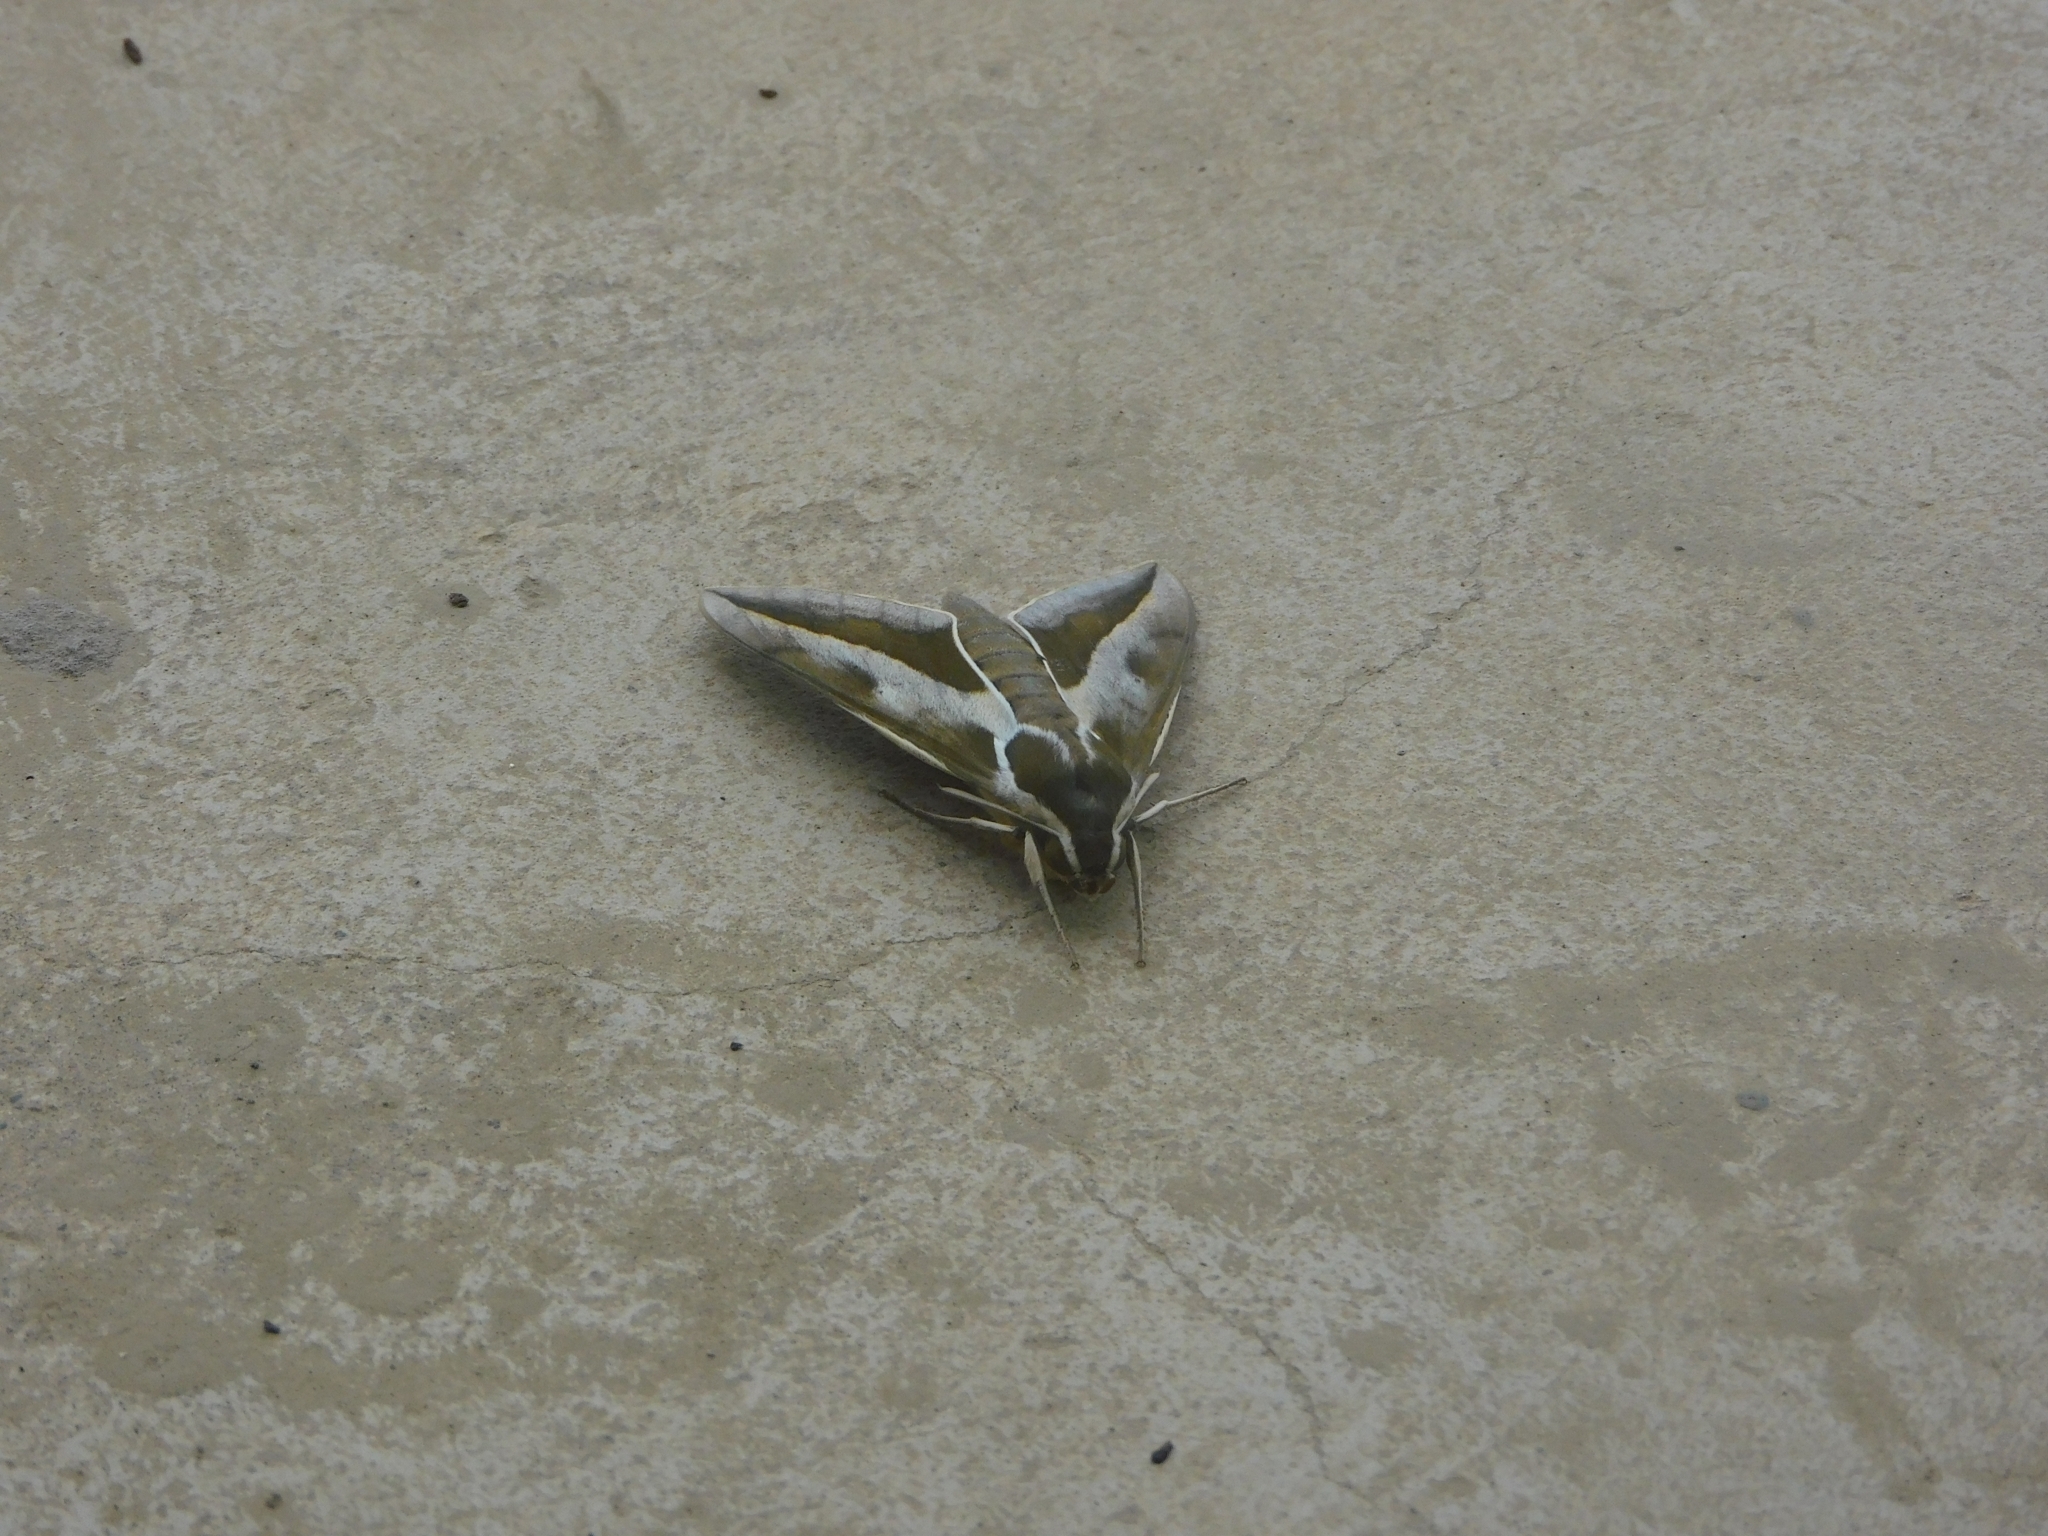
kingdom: Animalia
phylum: Arthropoda
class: Insecta
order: Lepidoptera
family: Sphingidae
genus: Hyles
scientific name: Hyles annei
